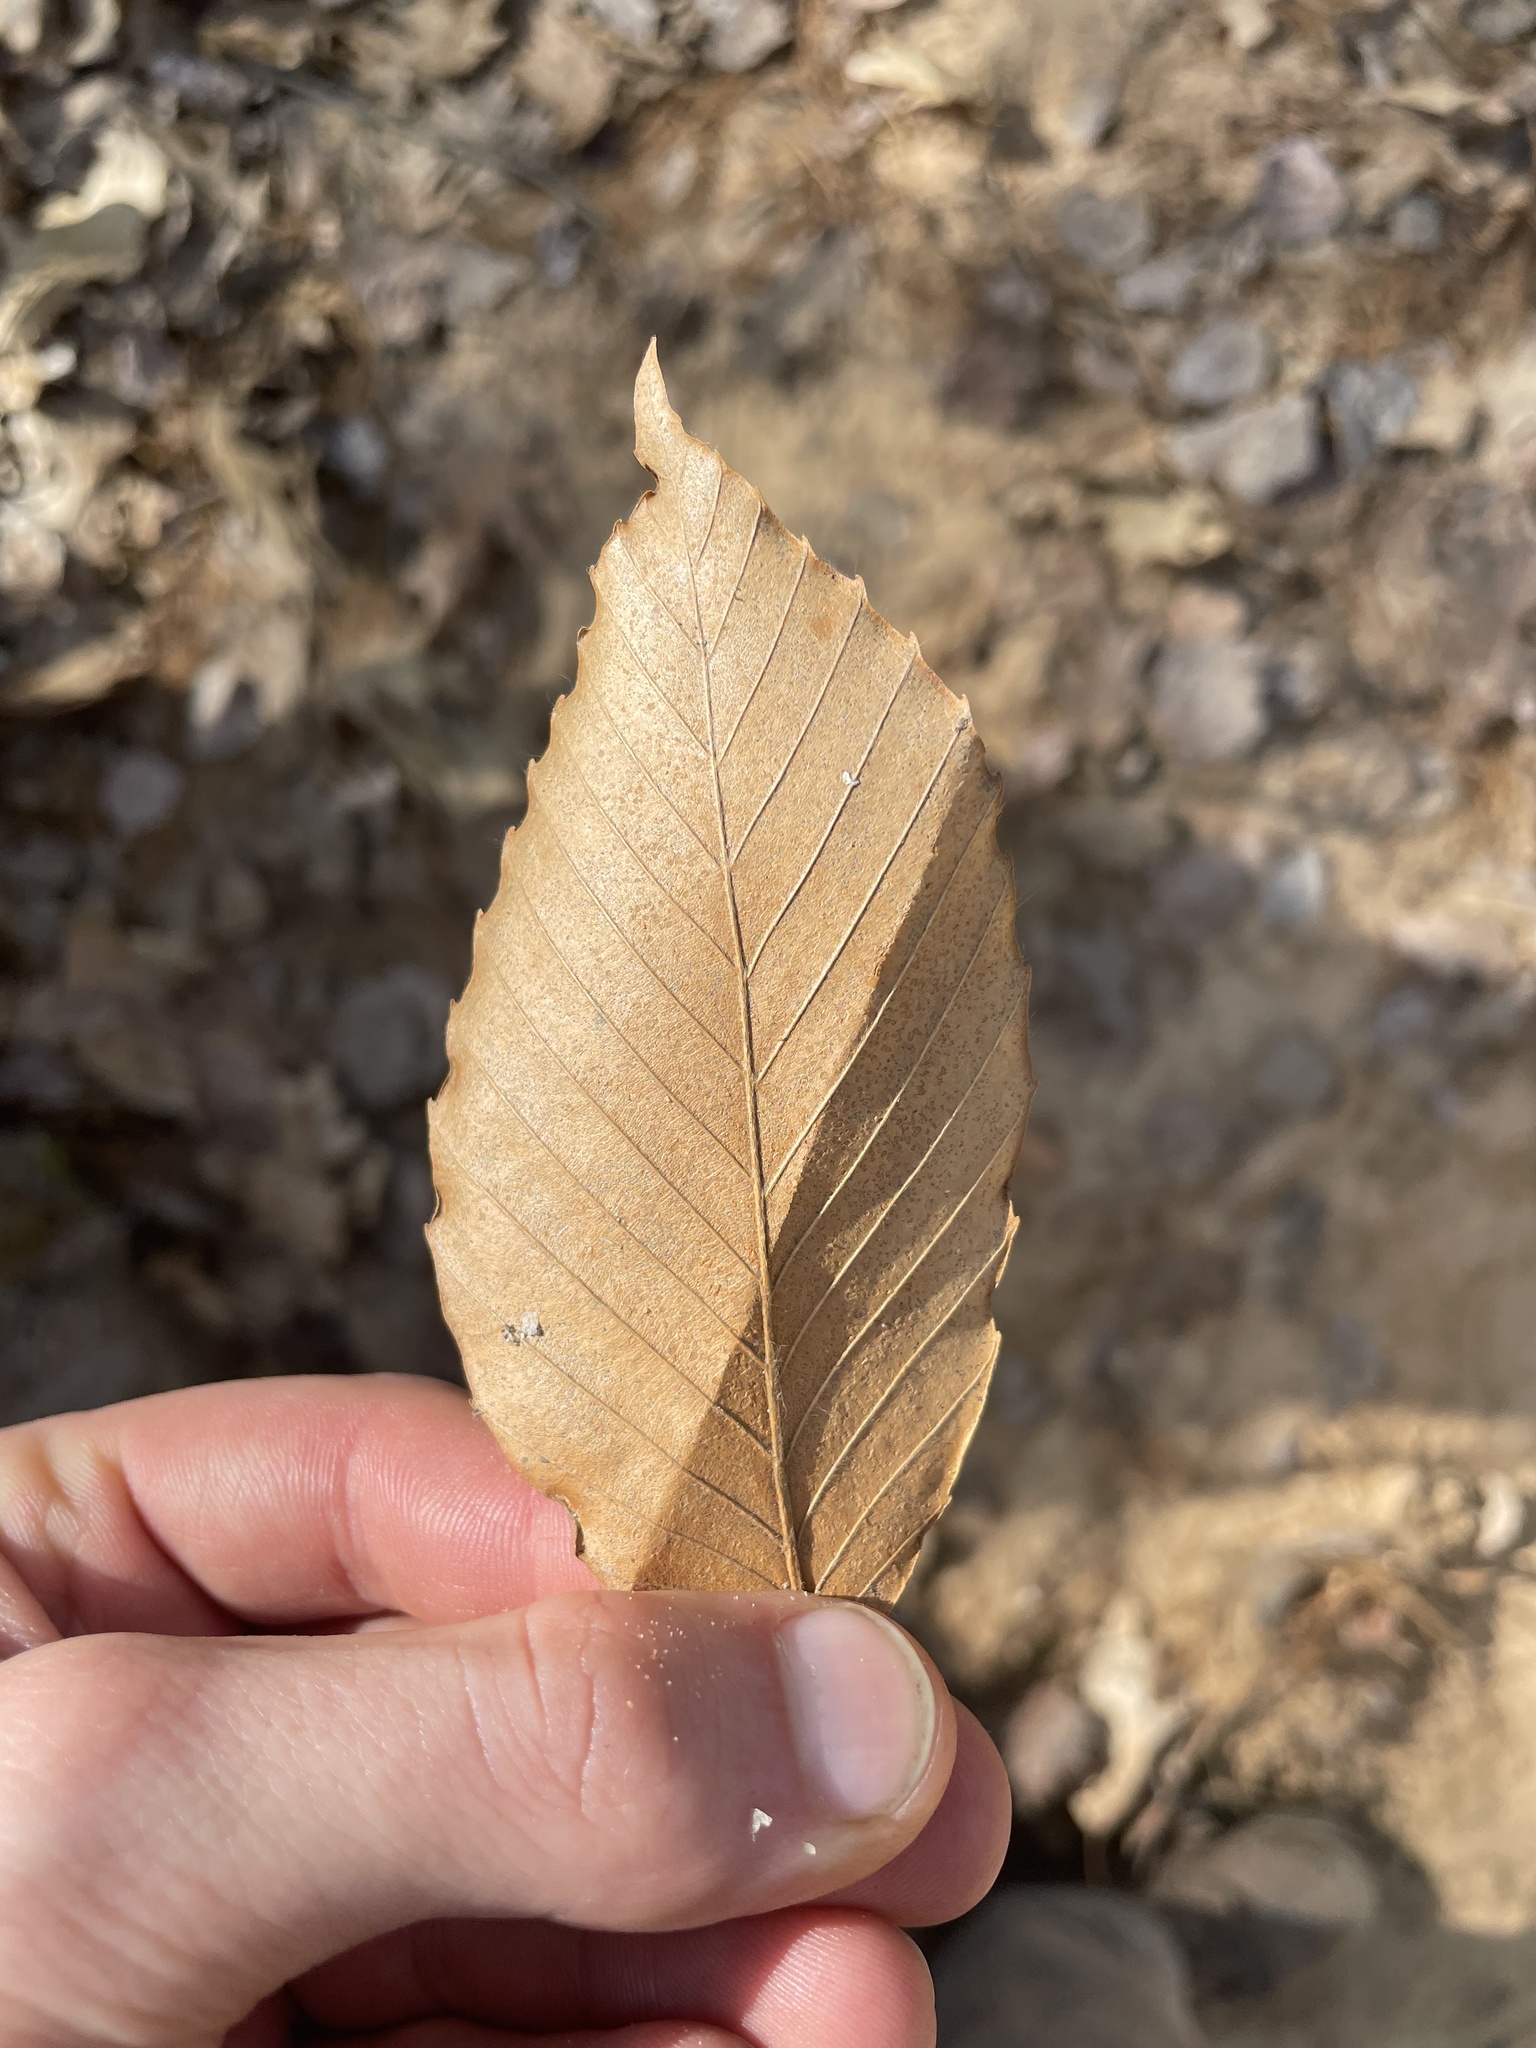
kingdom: Plantae
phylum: Tracheophyta
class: Magnoliopsida
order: Fagales
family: Fagaceae
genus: Fagus
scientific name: Fagus grandifolia
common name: American beech
